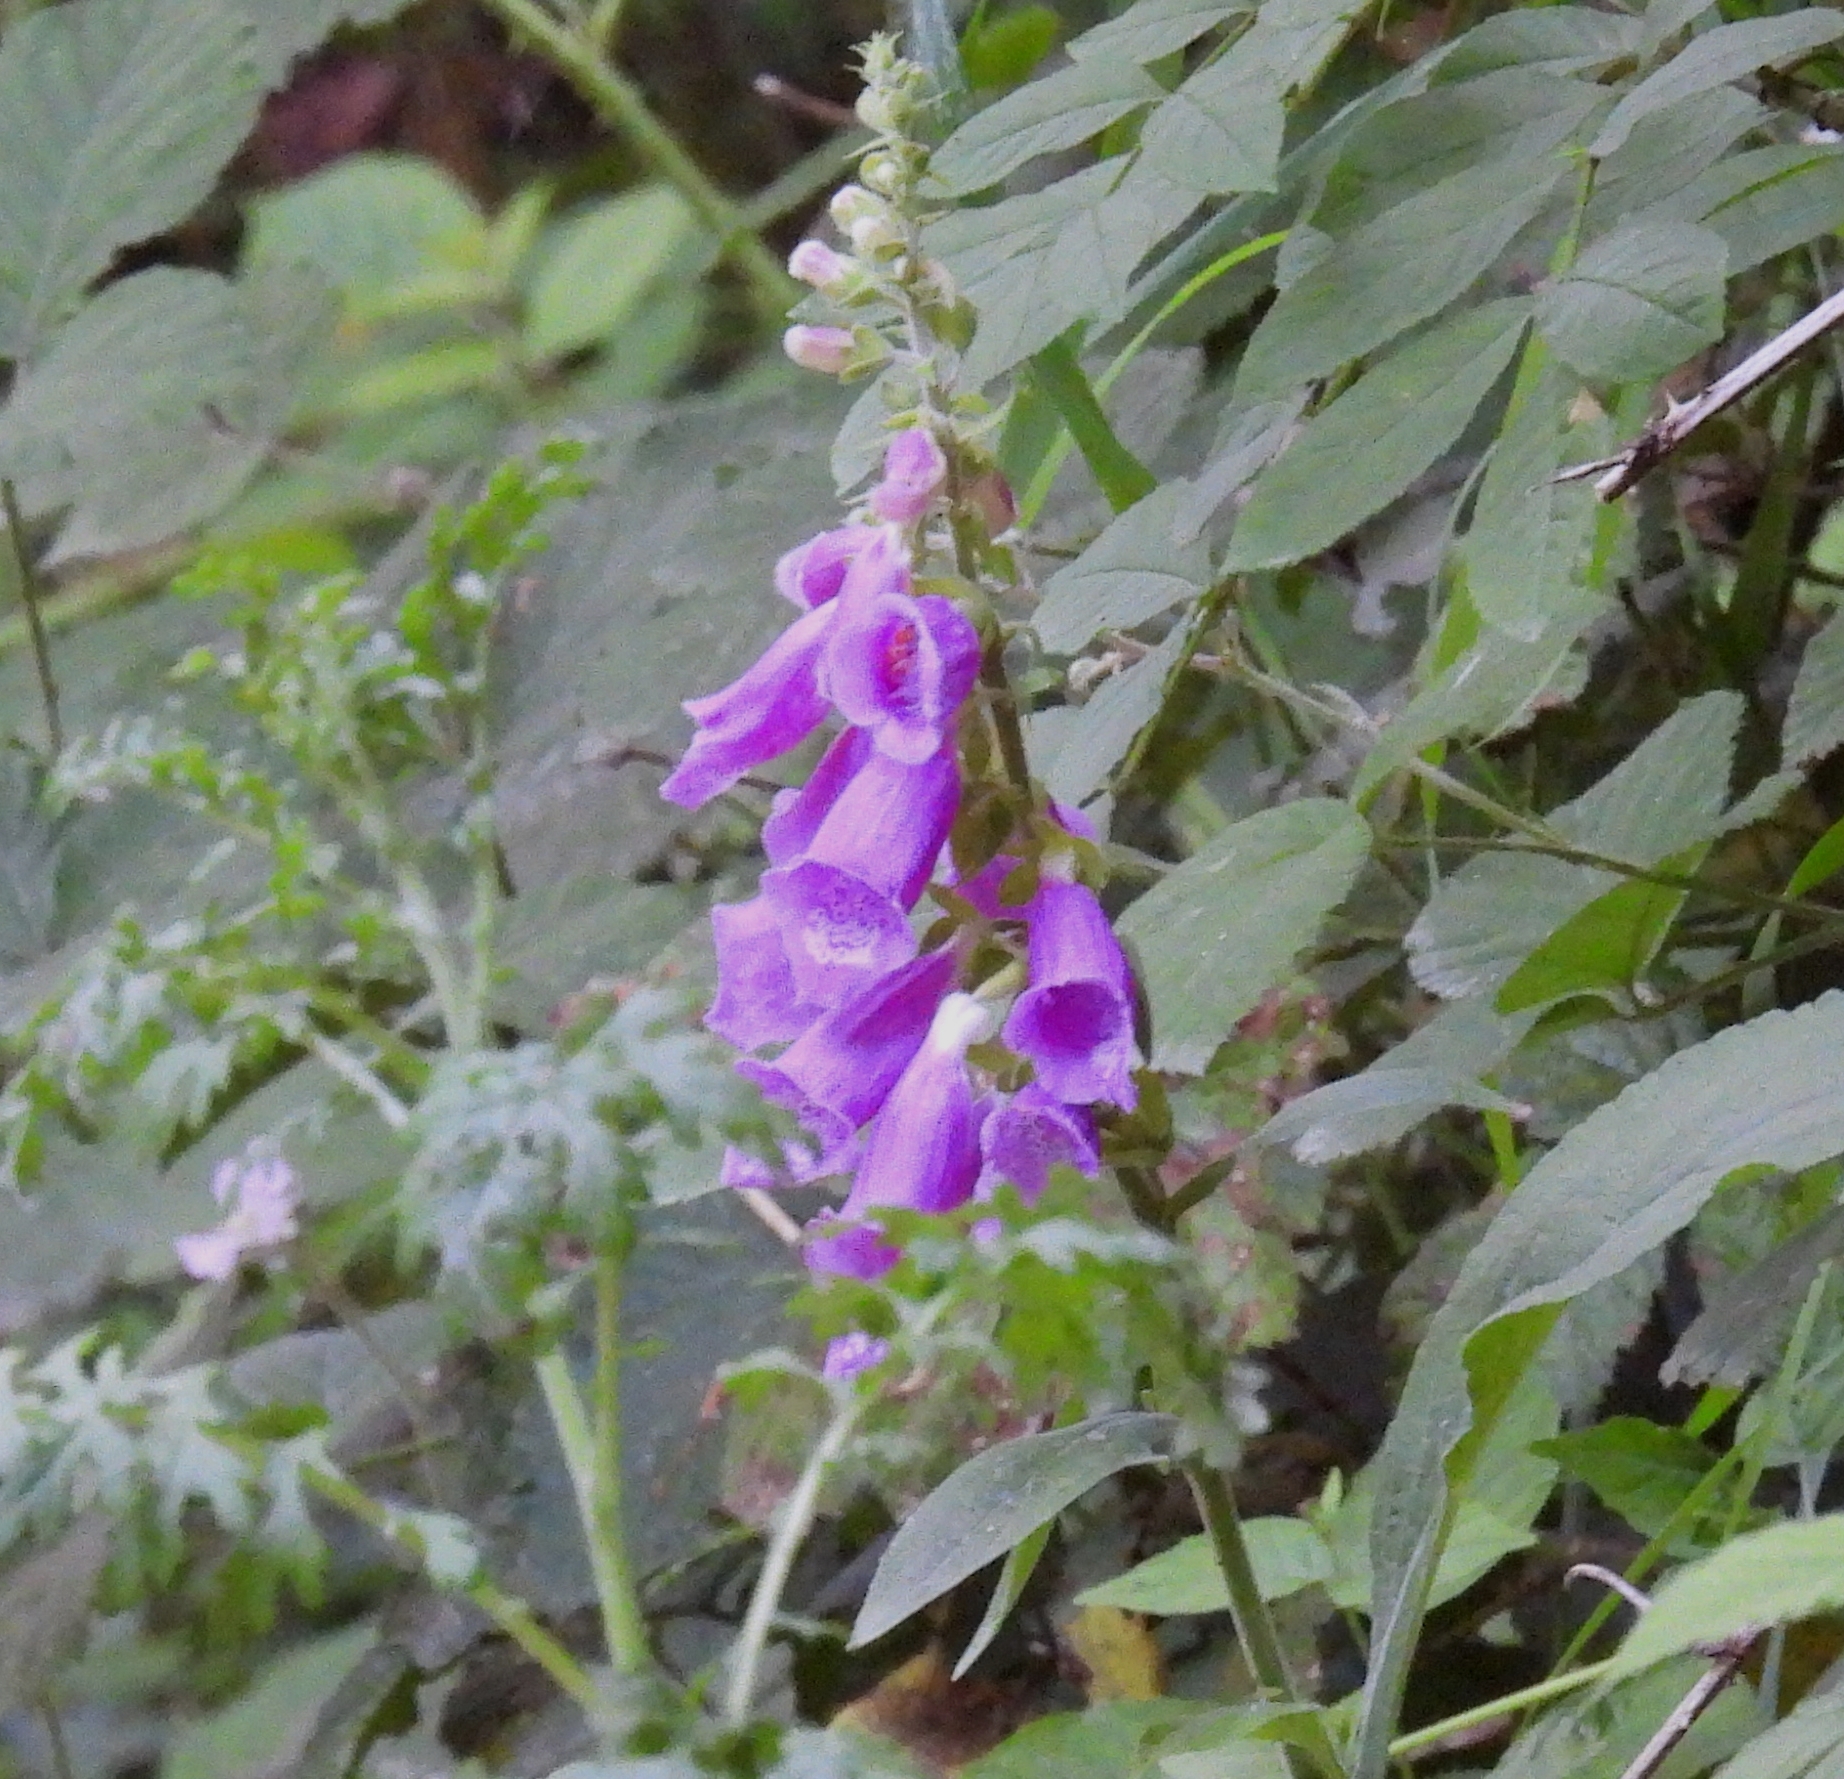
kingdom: Plantae
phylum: Tracheophyta
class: Magnoliopsida
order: Lamiales
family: Plantaginaceae
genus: Digitalis
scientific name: Digitalis purpurea
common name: Foxglove
